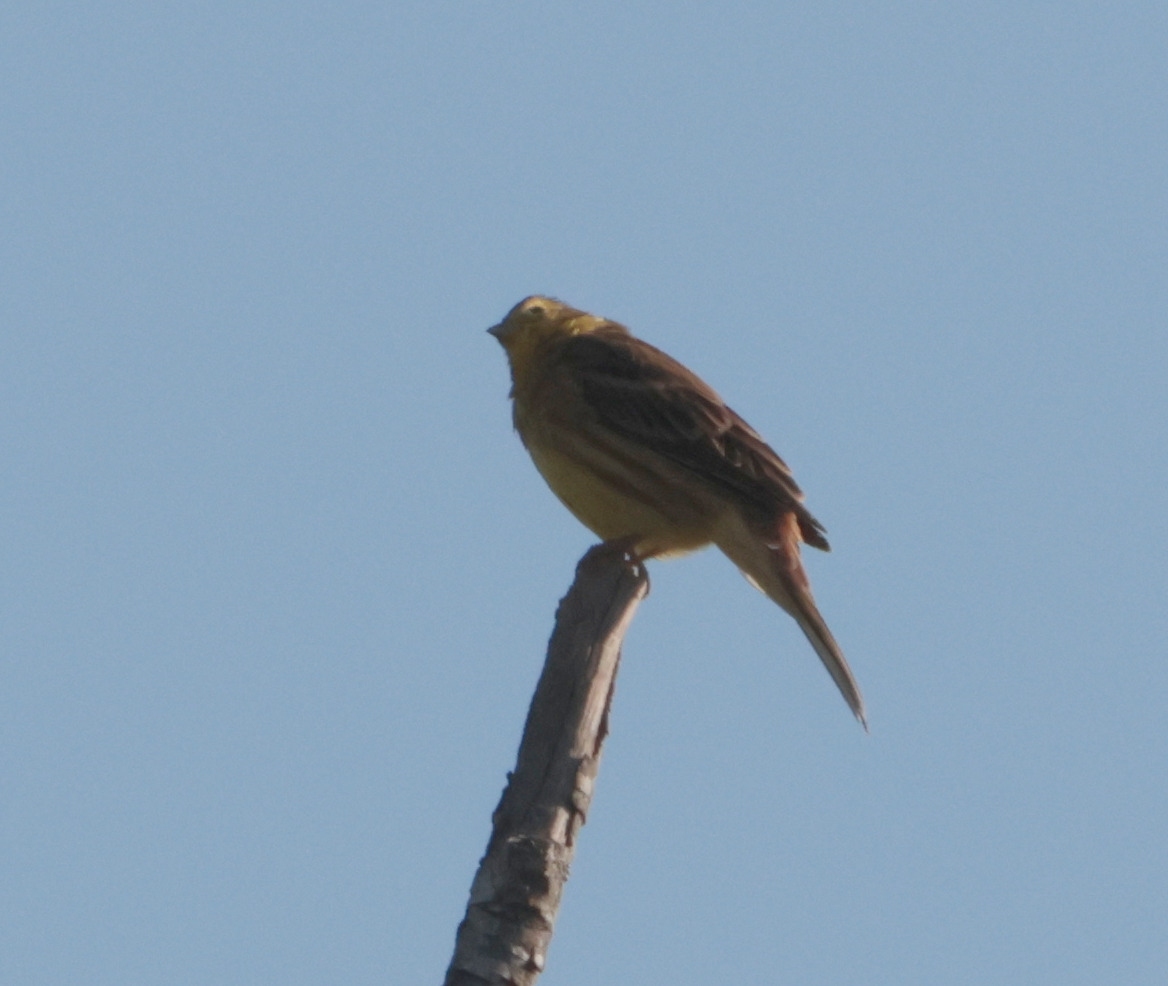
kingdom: Animalia
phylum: Chordata
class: Aves
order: Passeriformes
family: Emberizidae
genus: Emberiza
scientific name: Emberiza citrinella
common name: Yellowhammer
